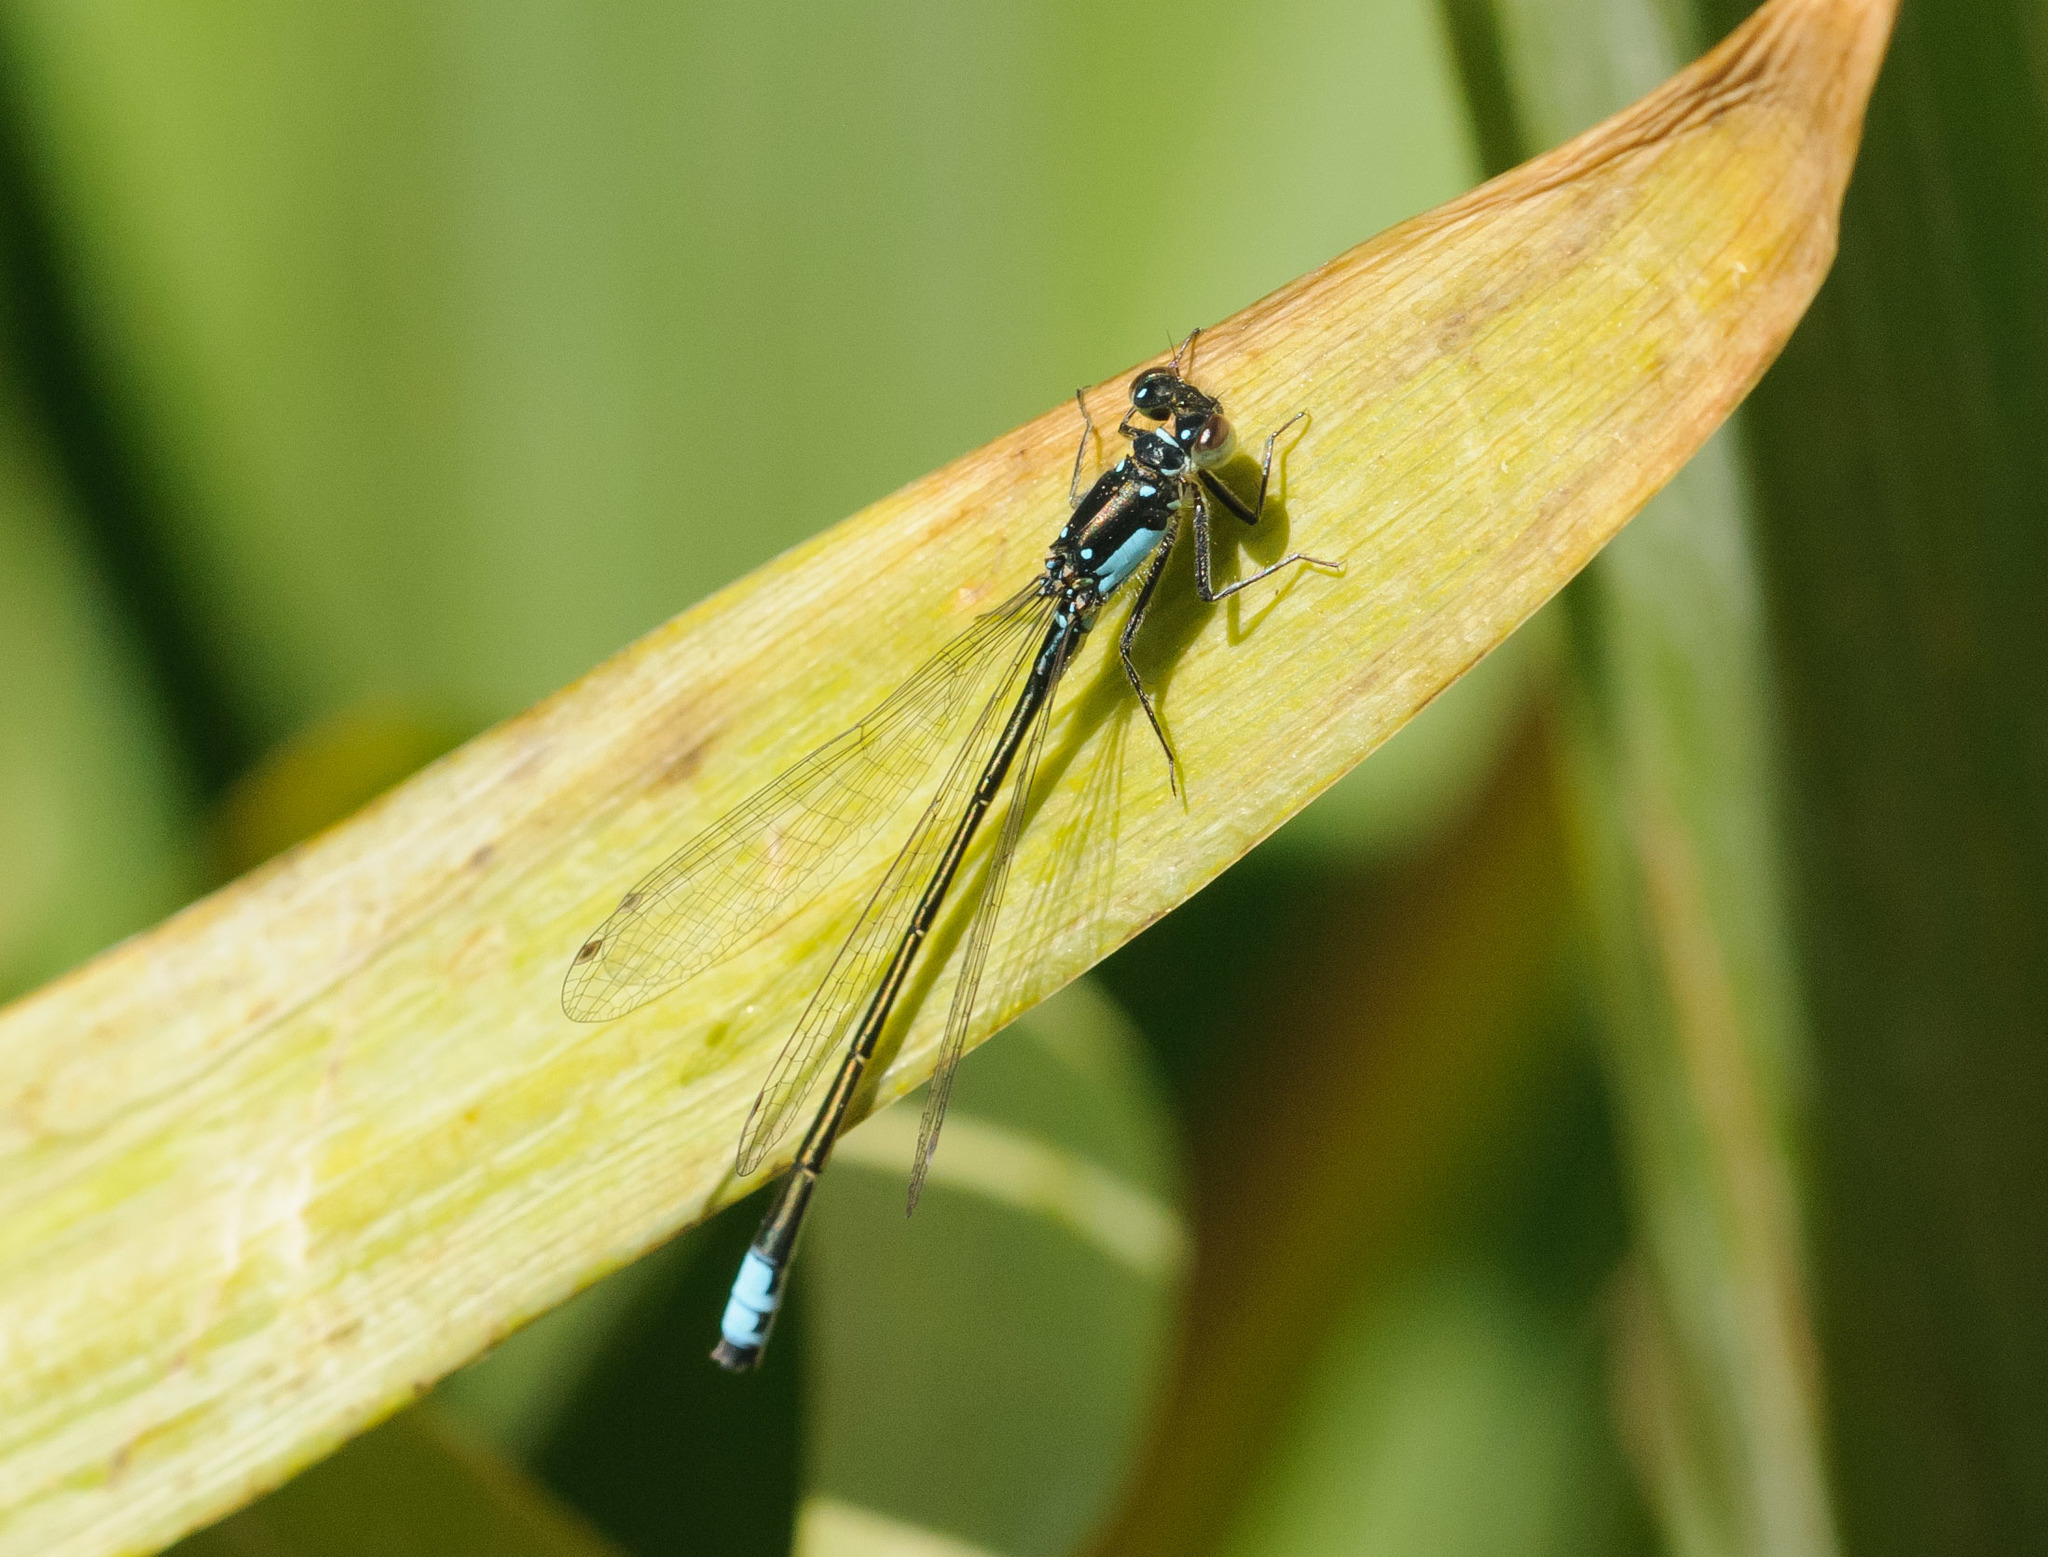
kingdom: Animalia
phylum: Arthropoda
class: Insecta
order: Odonata
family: Coenagrionidae
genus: Ischnura
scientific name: Ischnura cervula
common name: Pacific forktail
